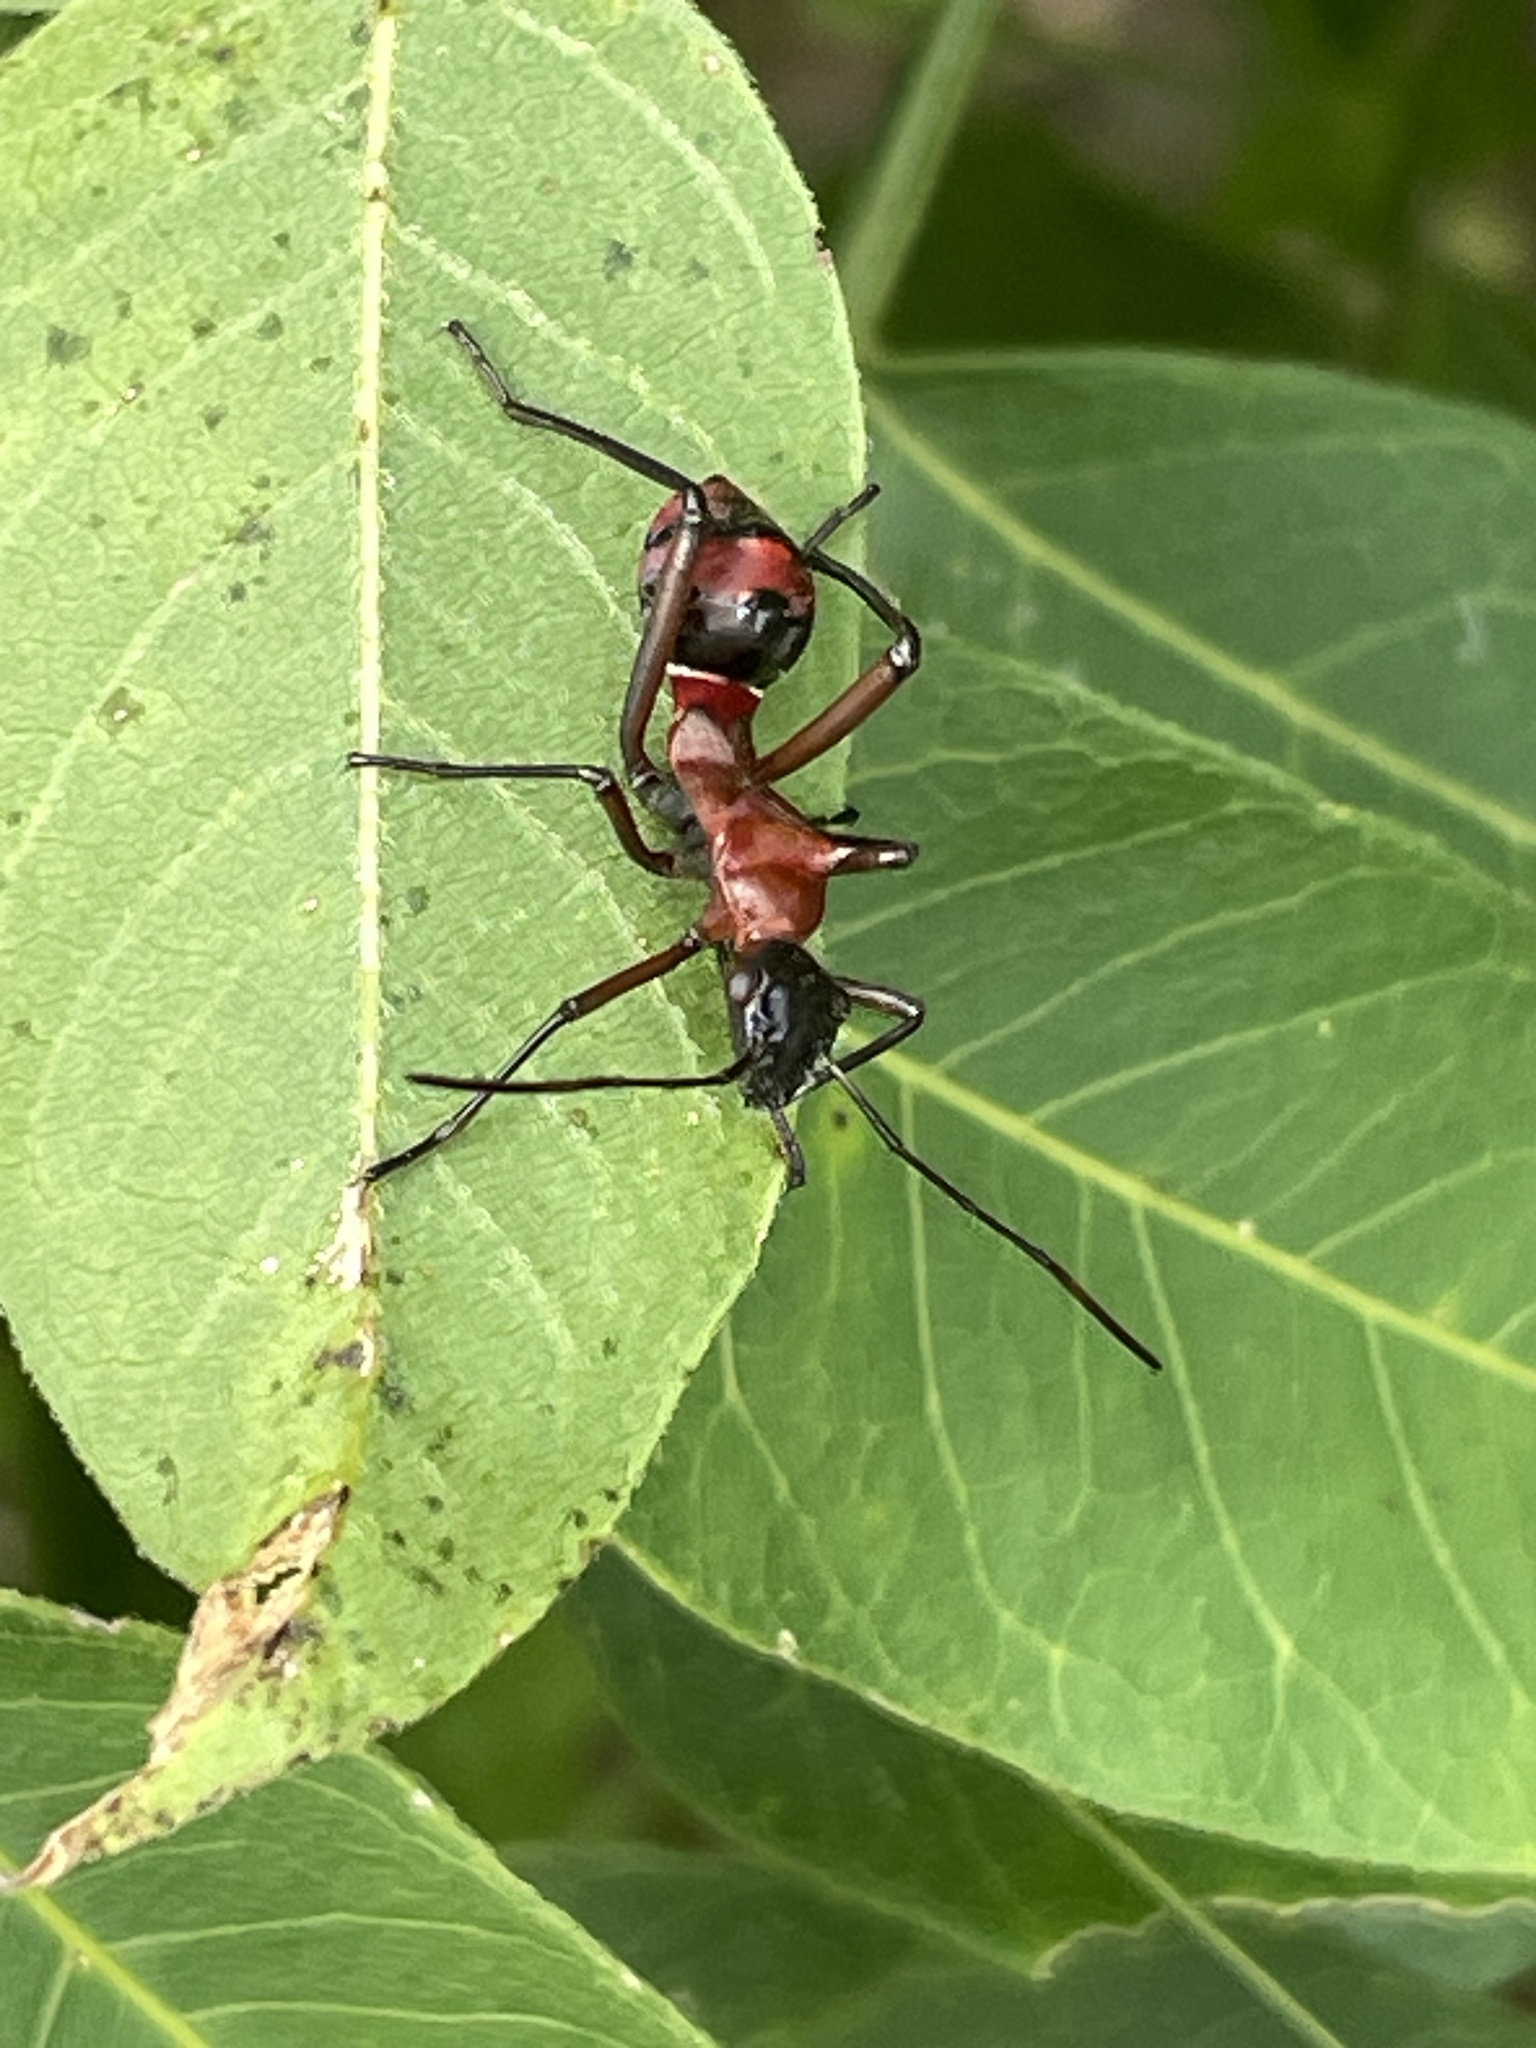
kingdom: Animalia
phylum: Arthropoda
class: Insecta
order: Hemiptera
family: Alydidae
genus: Hyalymenus
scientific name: Hyalymenus tarsatus
